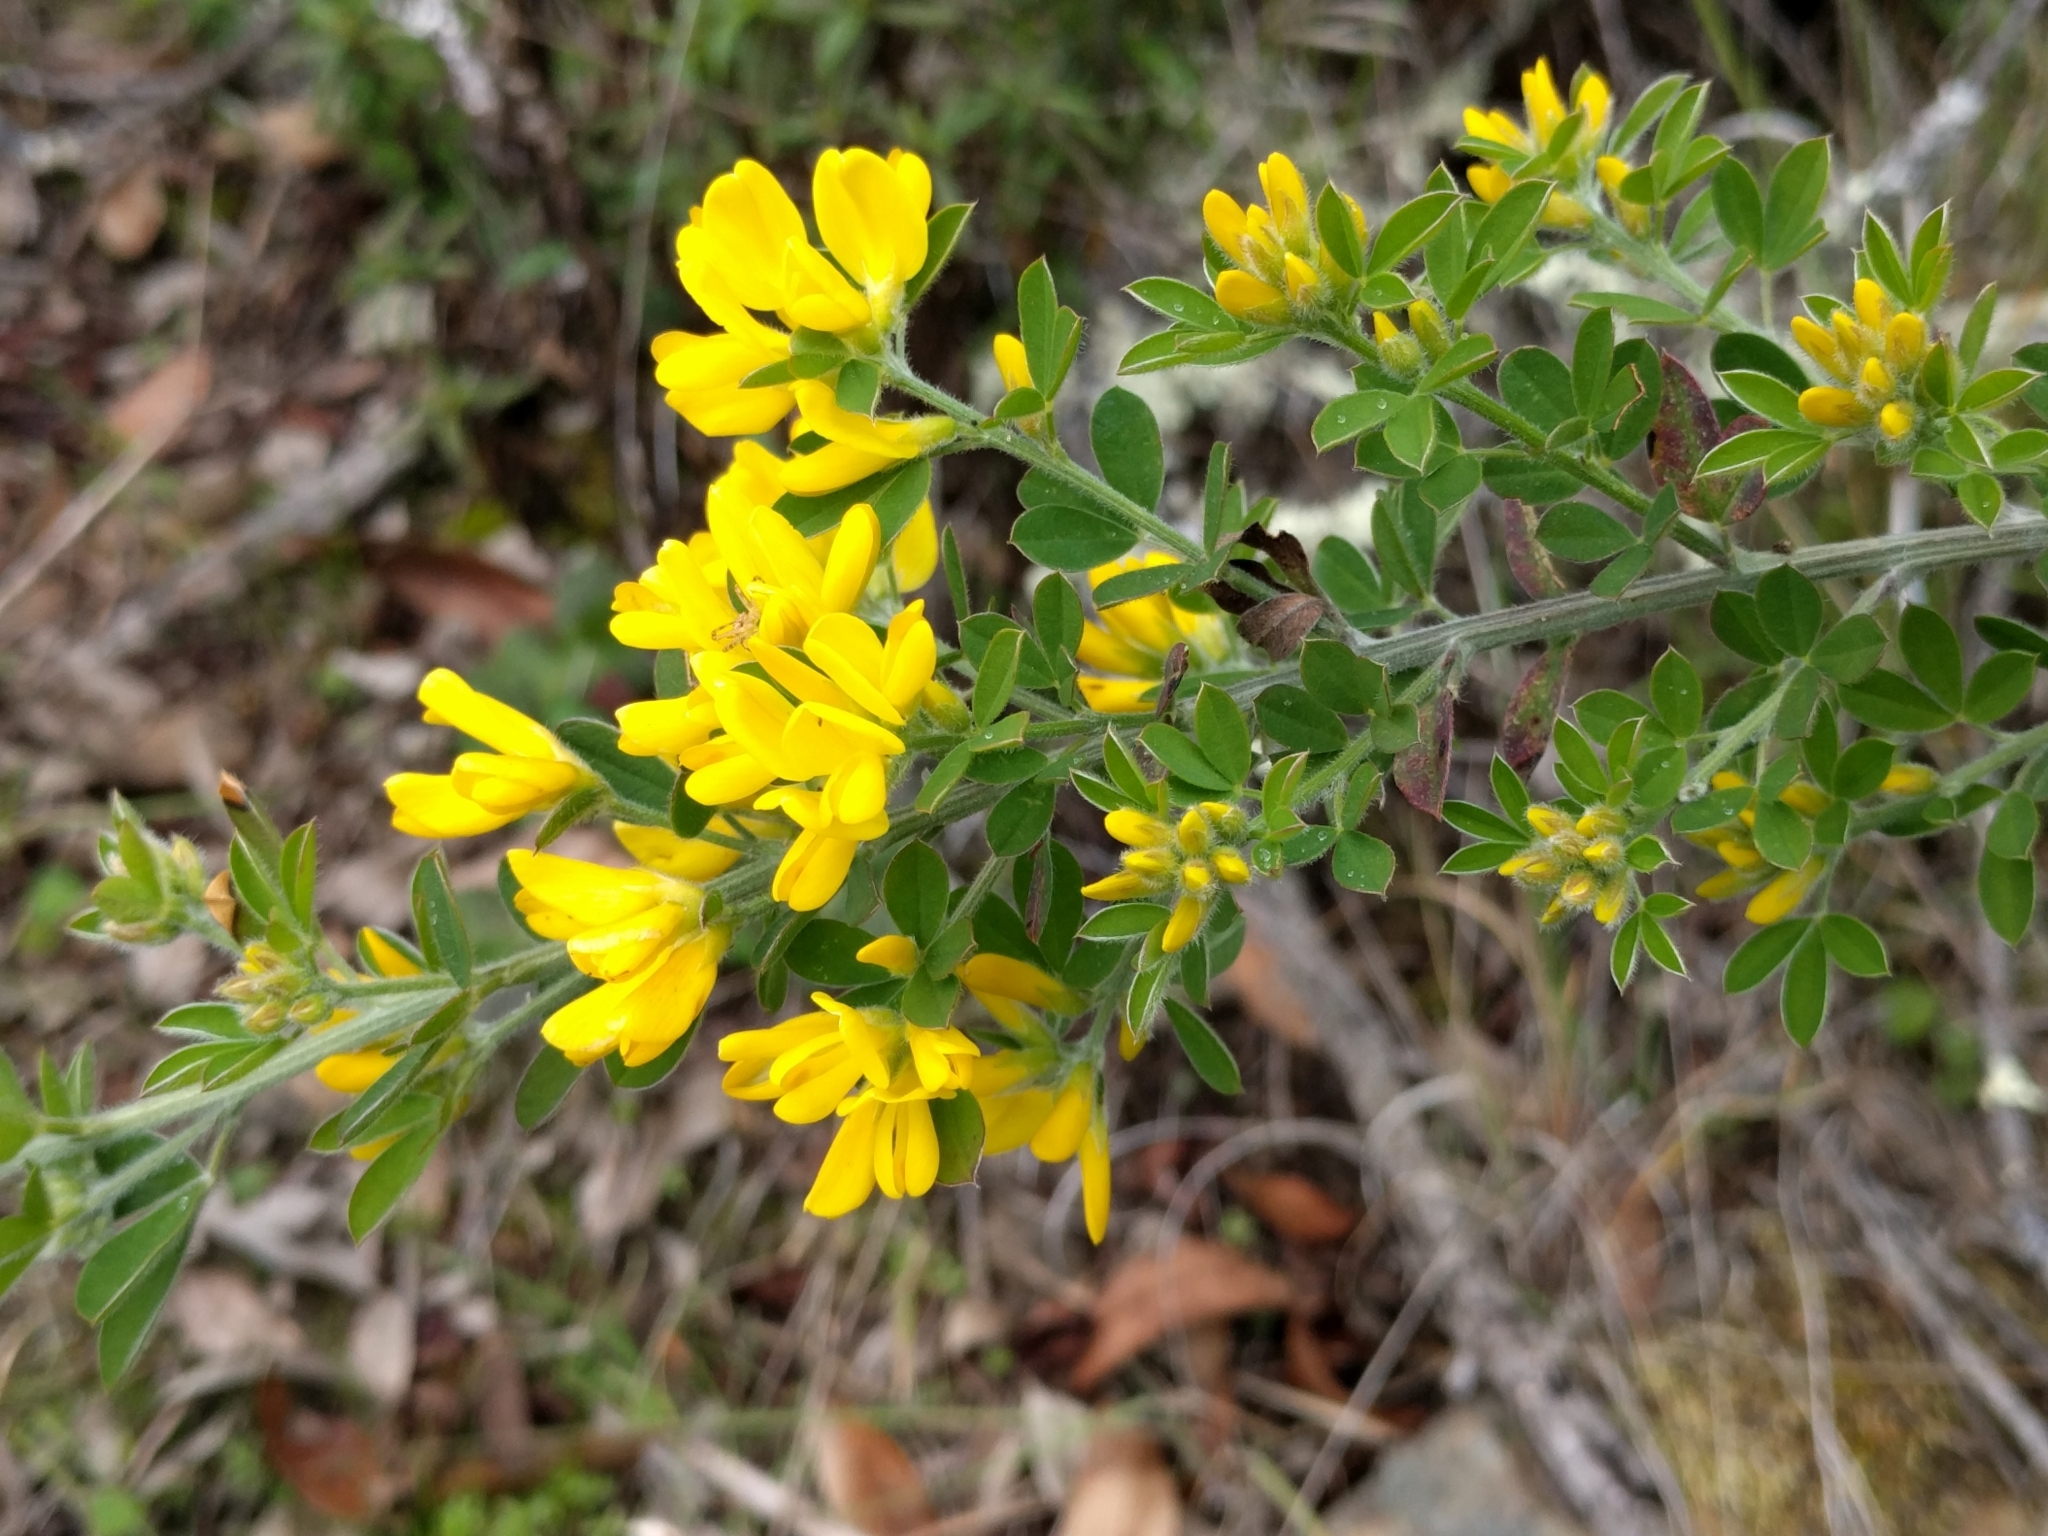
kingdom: Plantae
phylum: Tracheophyta
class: Magnoliopsida
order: Fabales
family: Fabaceae
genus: Genista
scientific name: Genista monspessulana
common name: Montpellier broom
